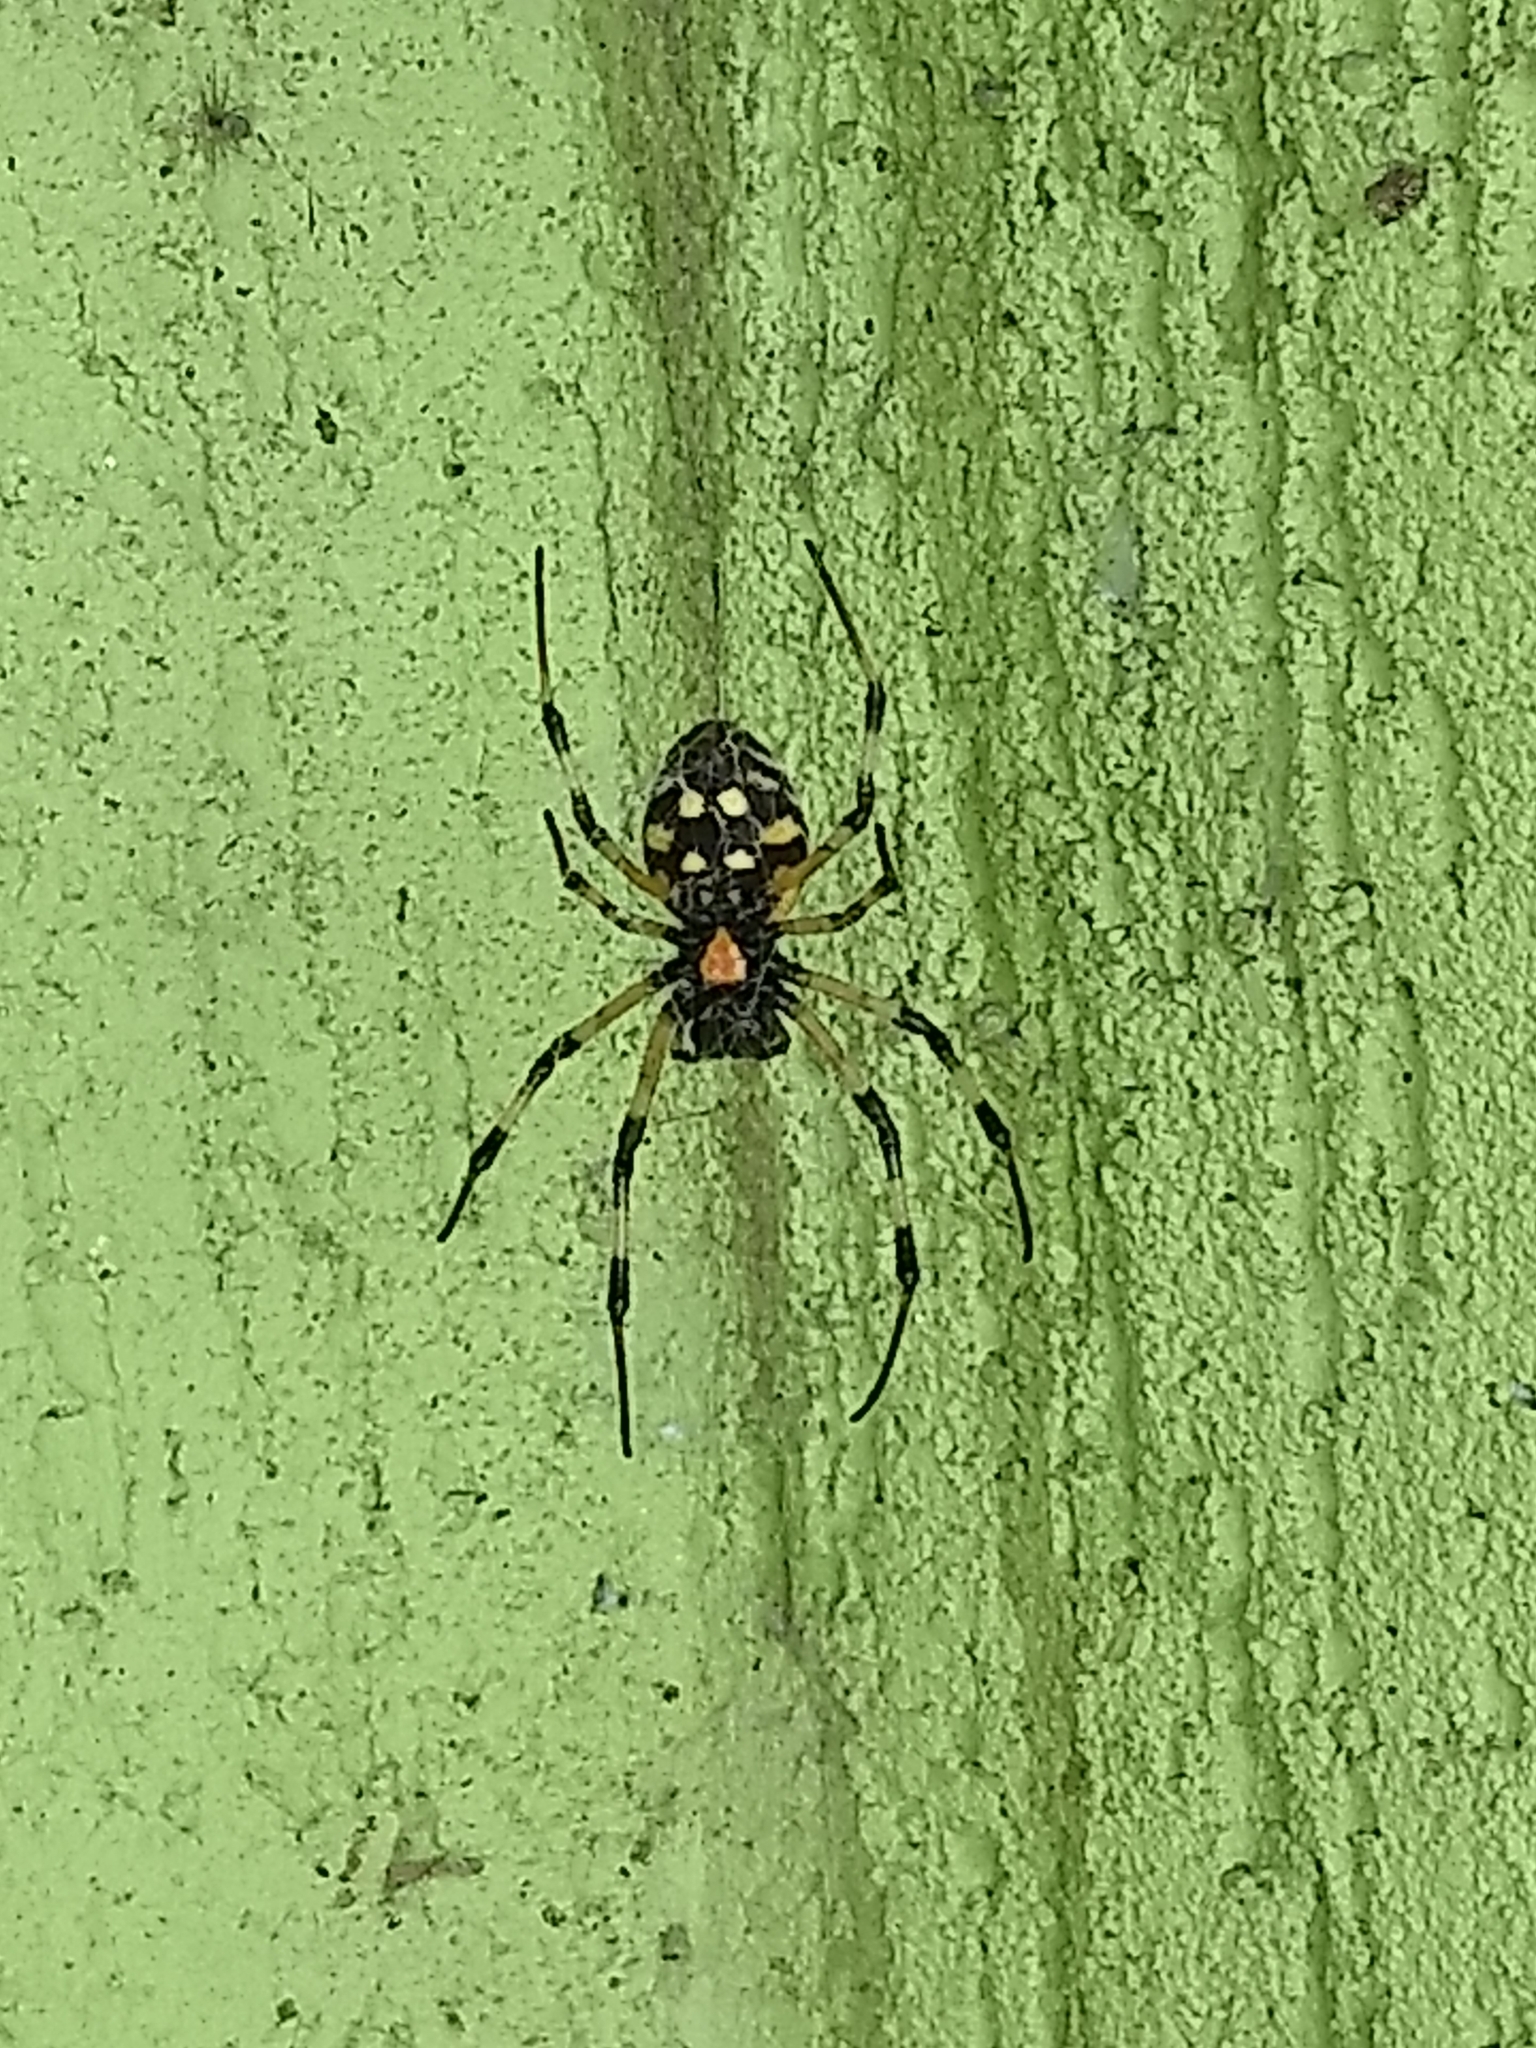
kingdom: Animalia
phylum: Arthropoda
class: Arachnida
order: Araneae
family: Araneidae
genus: Nephilingis
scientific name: Nephilingis cruentata
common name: African hermit spider
